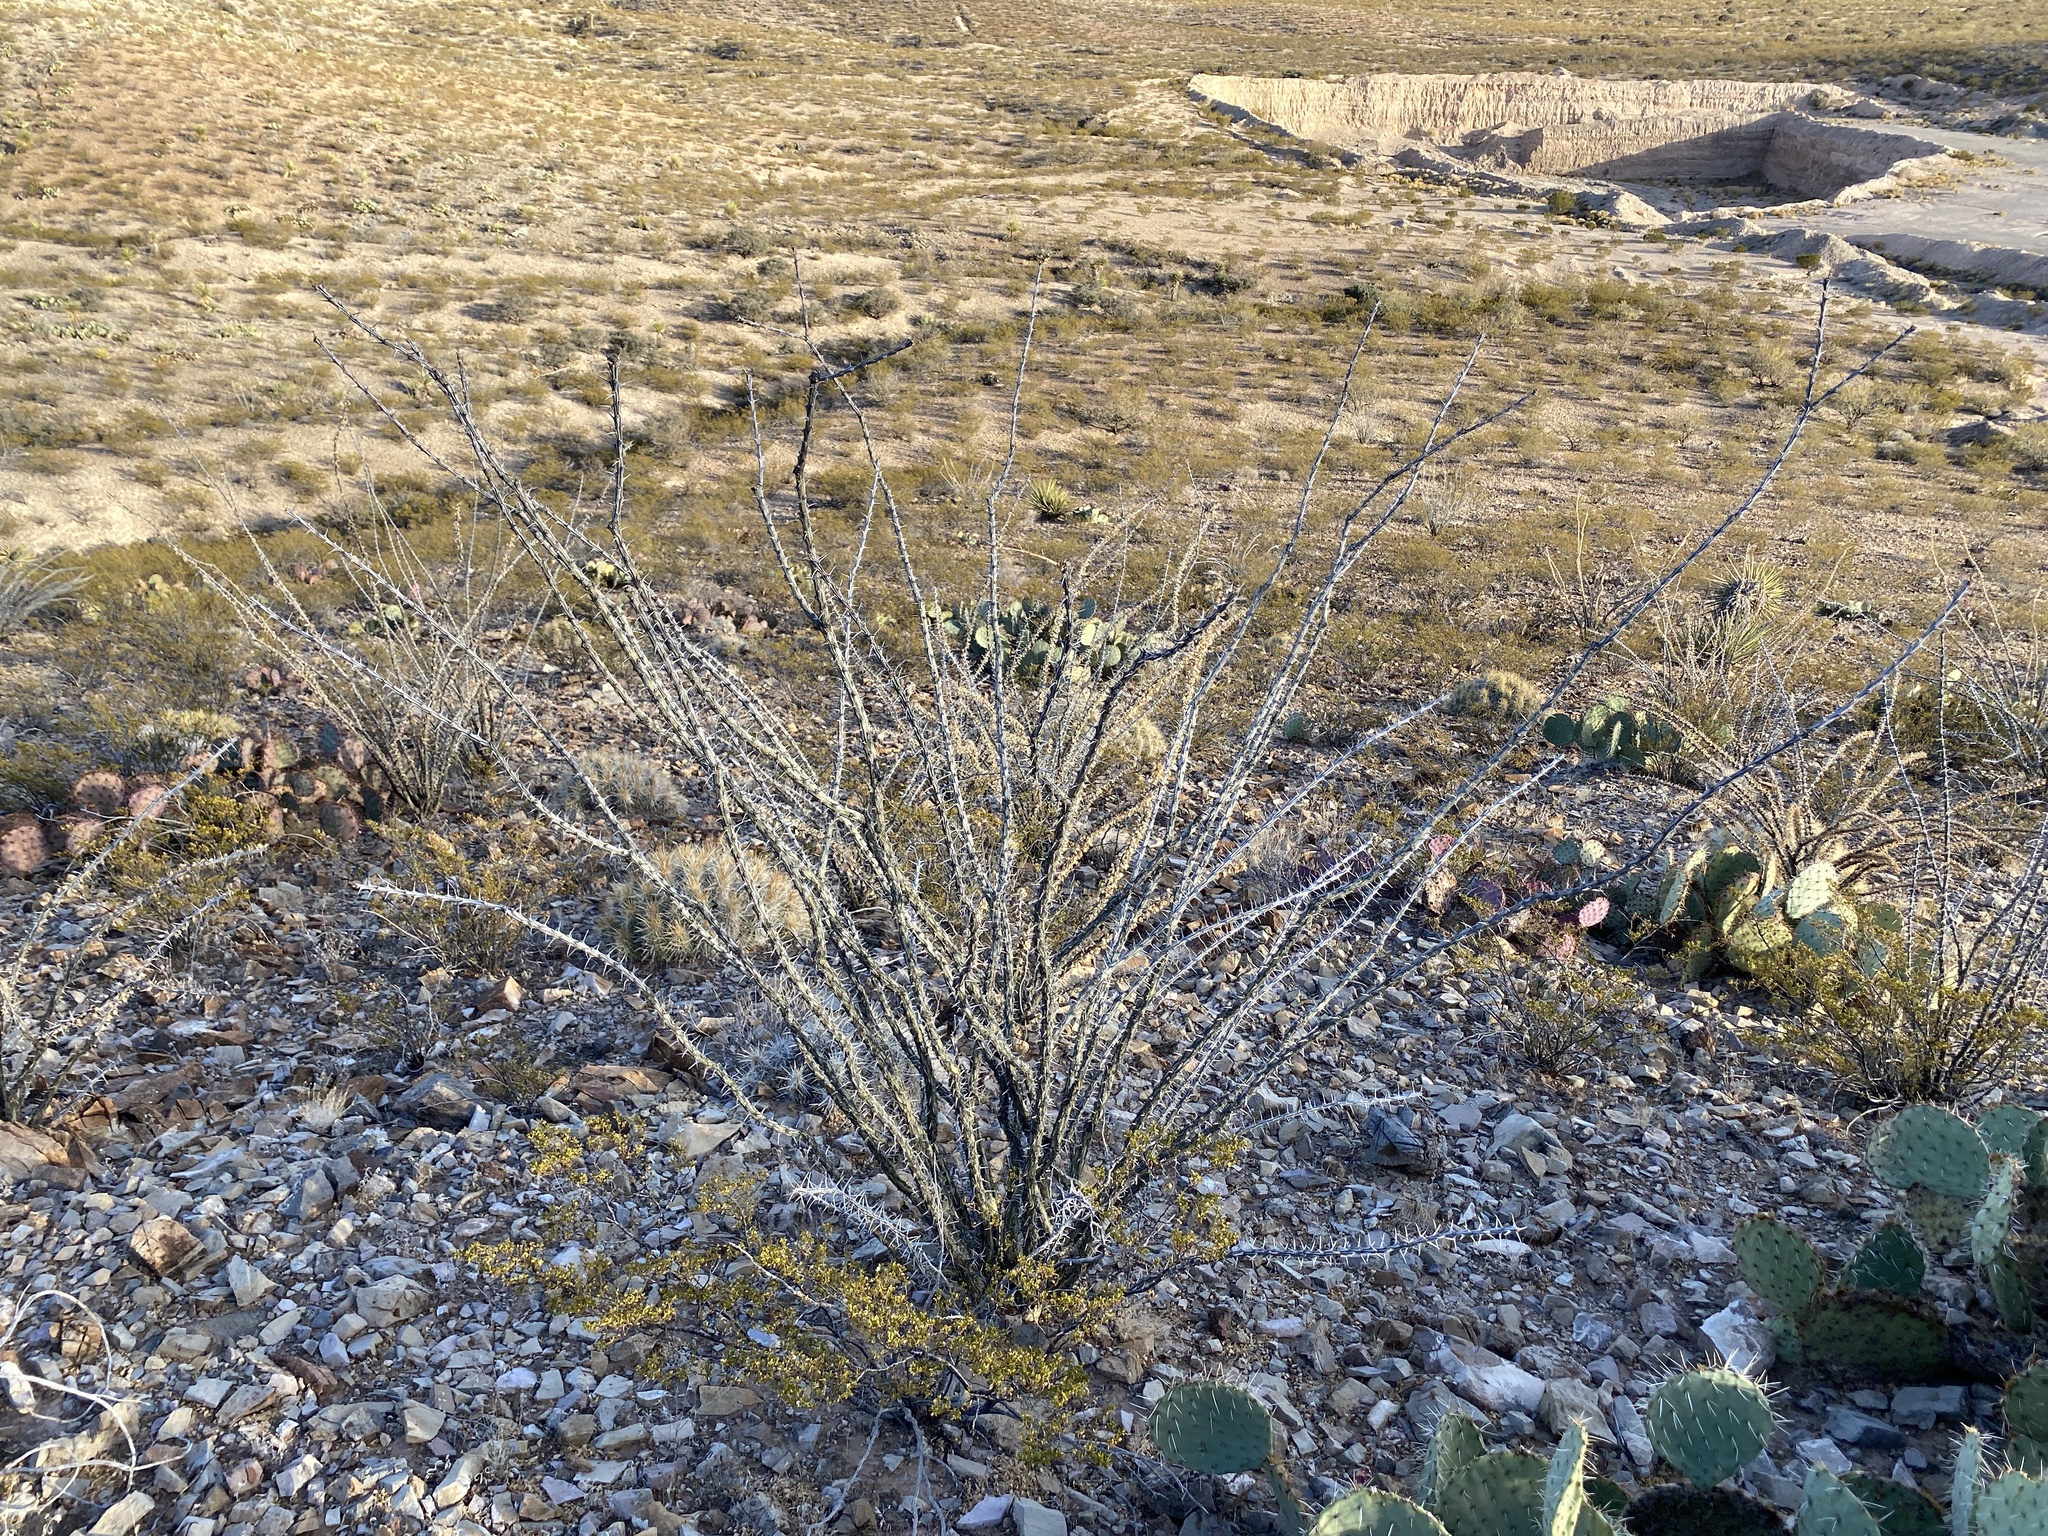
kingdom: Plantae
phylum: Tracheophyta
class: Magnoliopsida
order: Ericales
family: Fouquieriaceae
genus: Fouquieria
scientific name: Fouquieria splendens
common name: Vine-cactus
